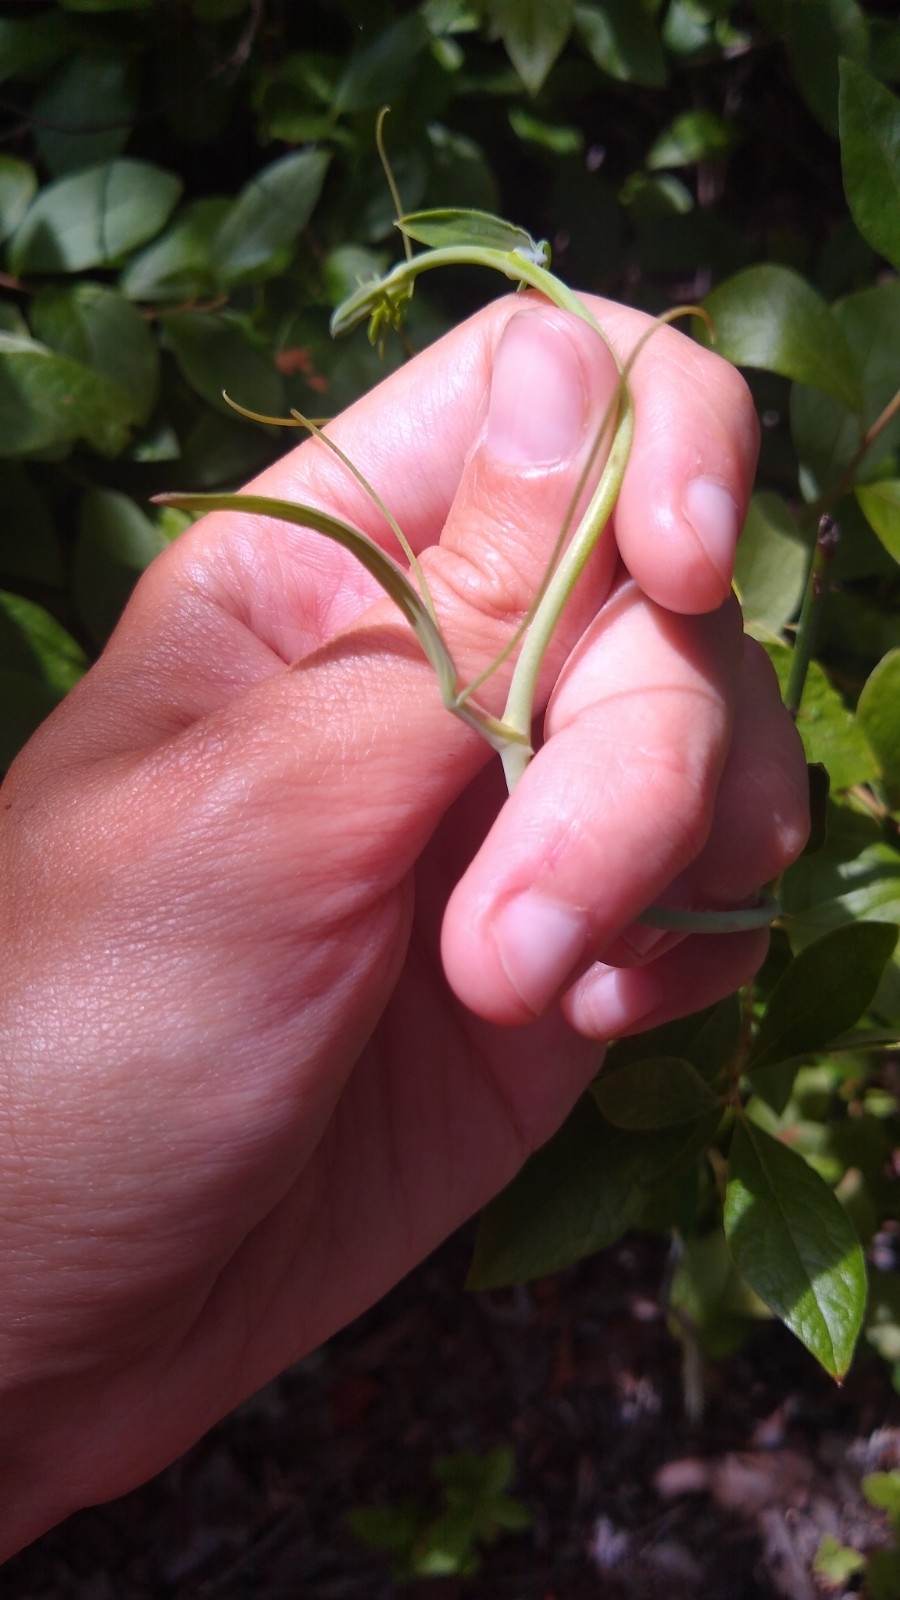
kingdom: Plantae
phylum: Tracheophyta
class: Liliopsida
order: Liliales
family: Smilacaceae
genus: Smilax
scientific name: Smilax glauca
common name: Cat greenbrier
